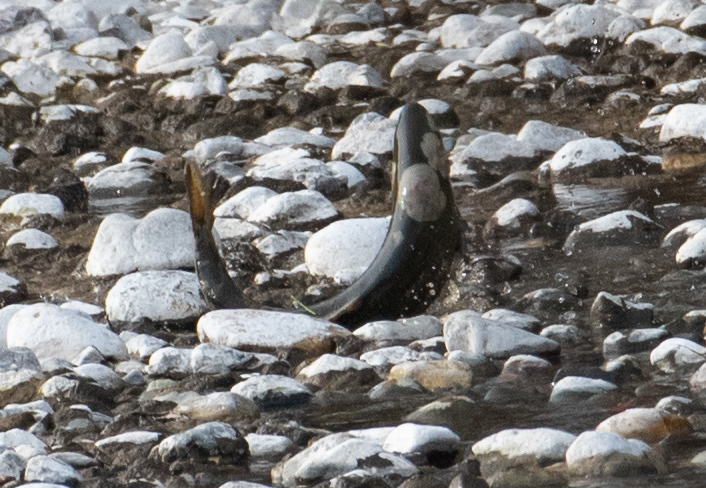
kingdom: Animalia
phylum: Chordata
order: Salmoniformes
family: Salmonidae
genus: Oncorhynchus
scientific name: Oncorhynchus mykiss
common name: Rainbow trout
